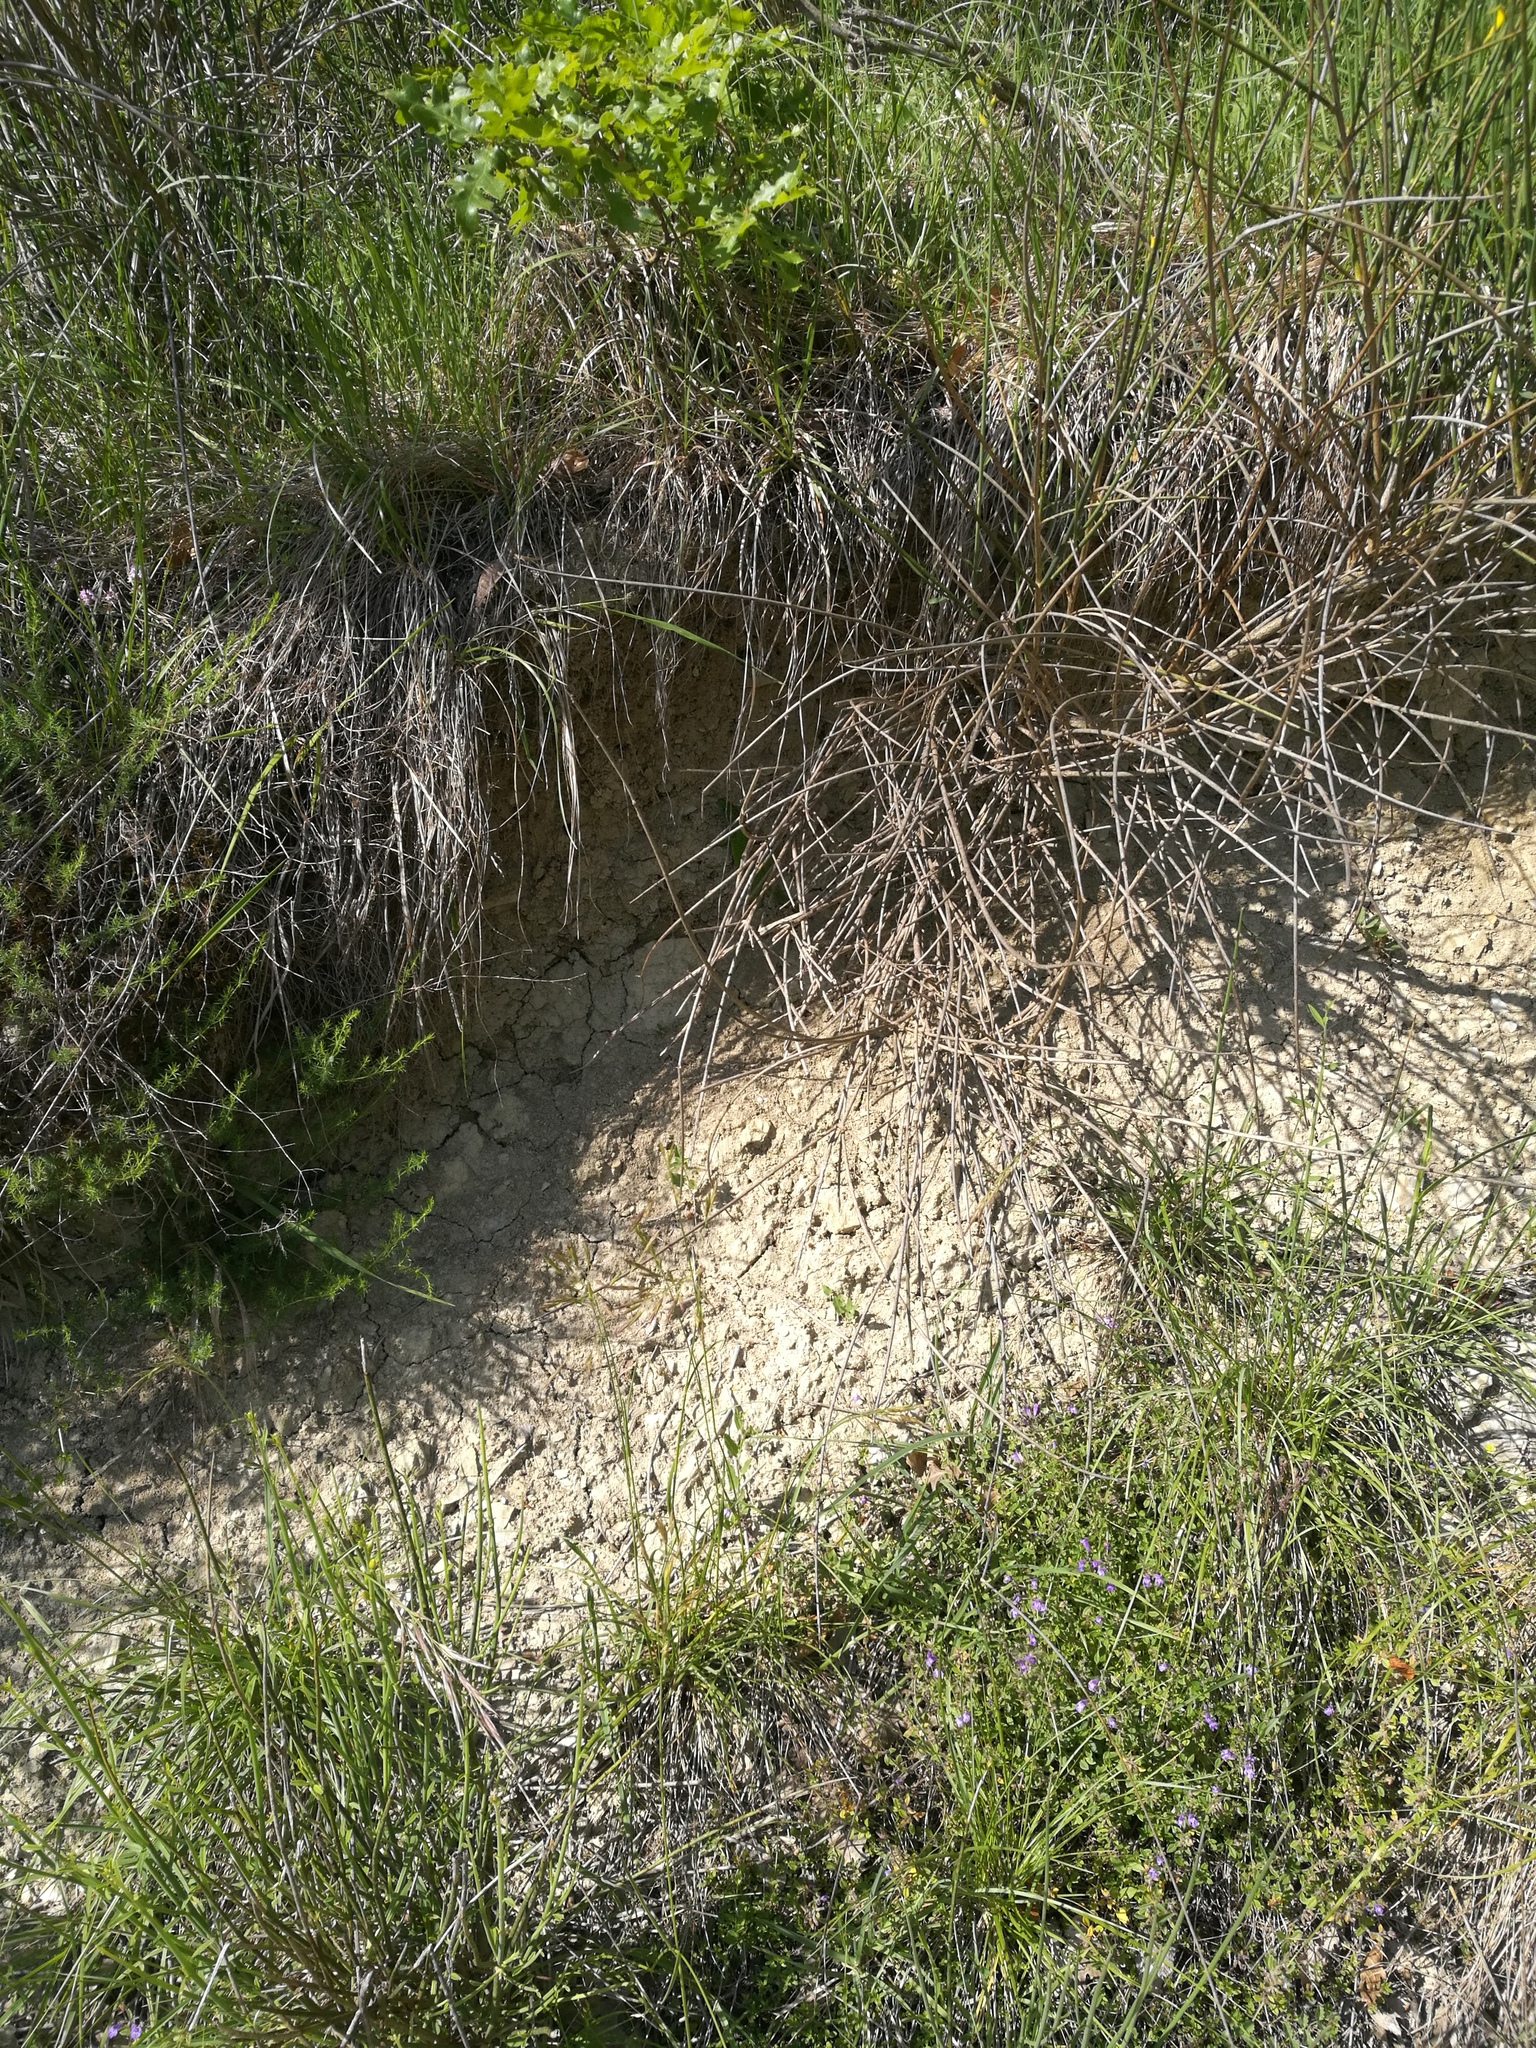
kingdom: Animalia
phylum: Chordata
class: Squamata
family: Lacertidae
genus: Lacerta
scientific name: Lacerta bilineata
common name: Western green lizard
